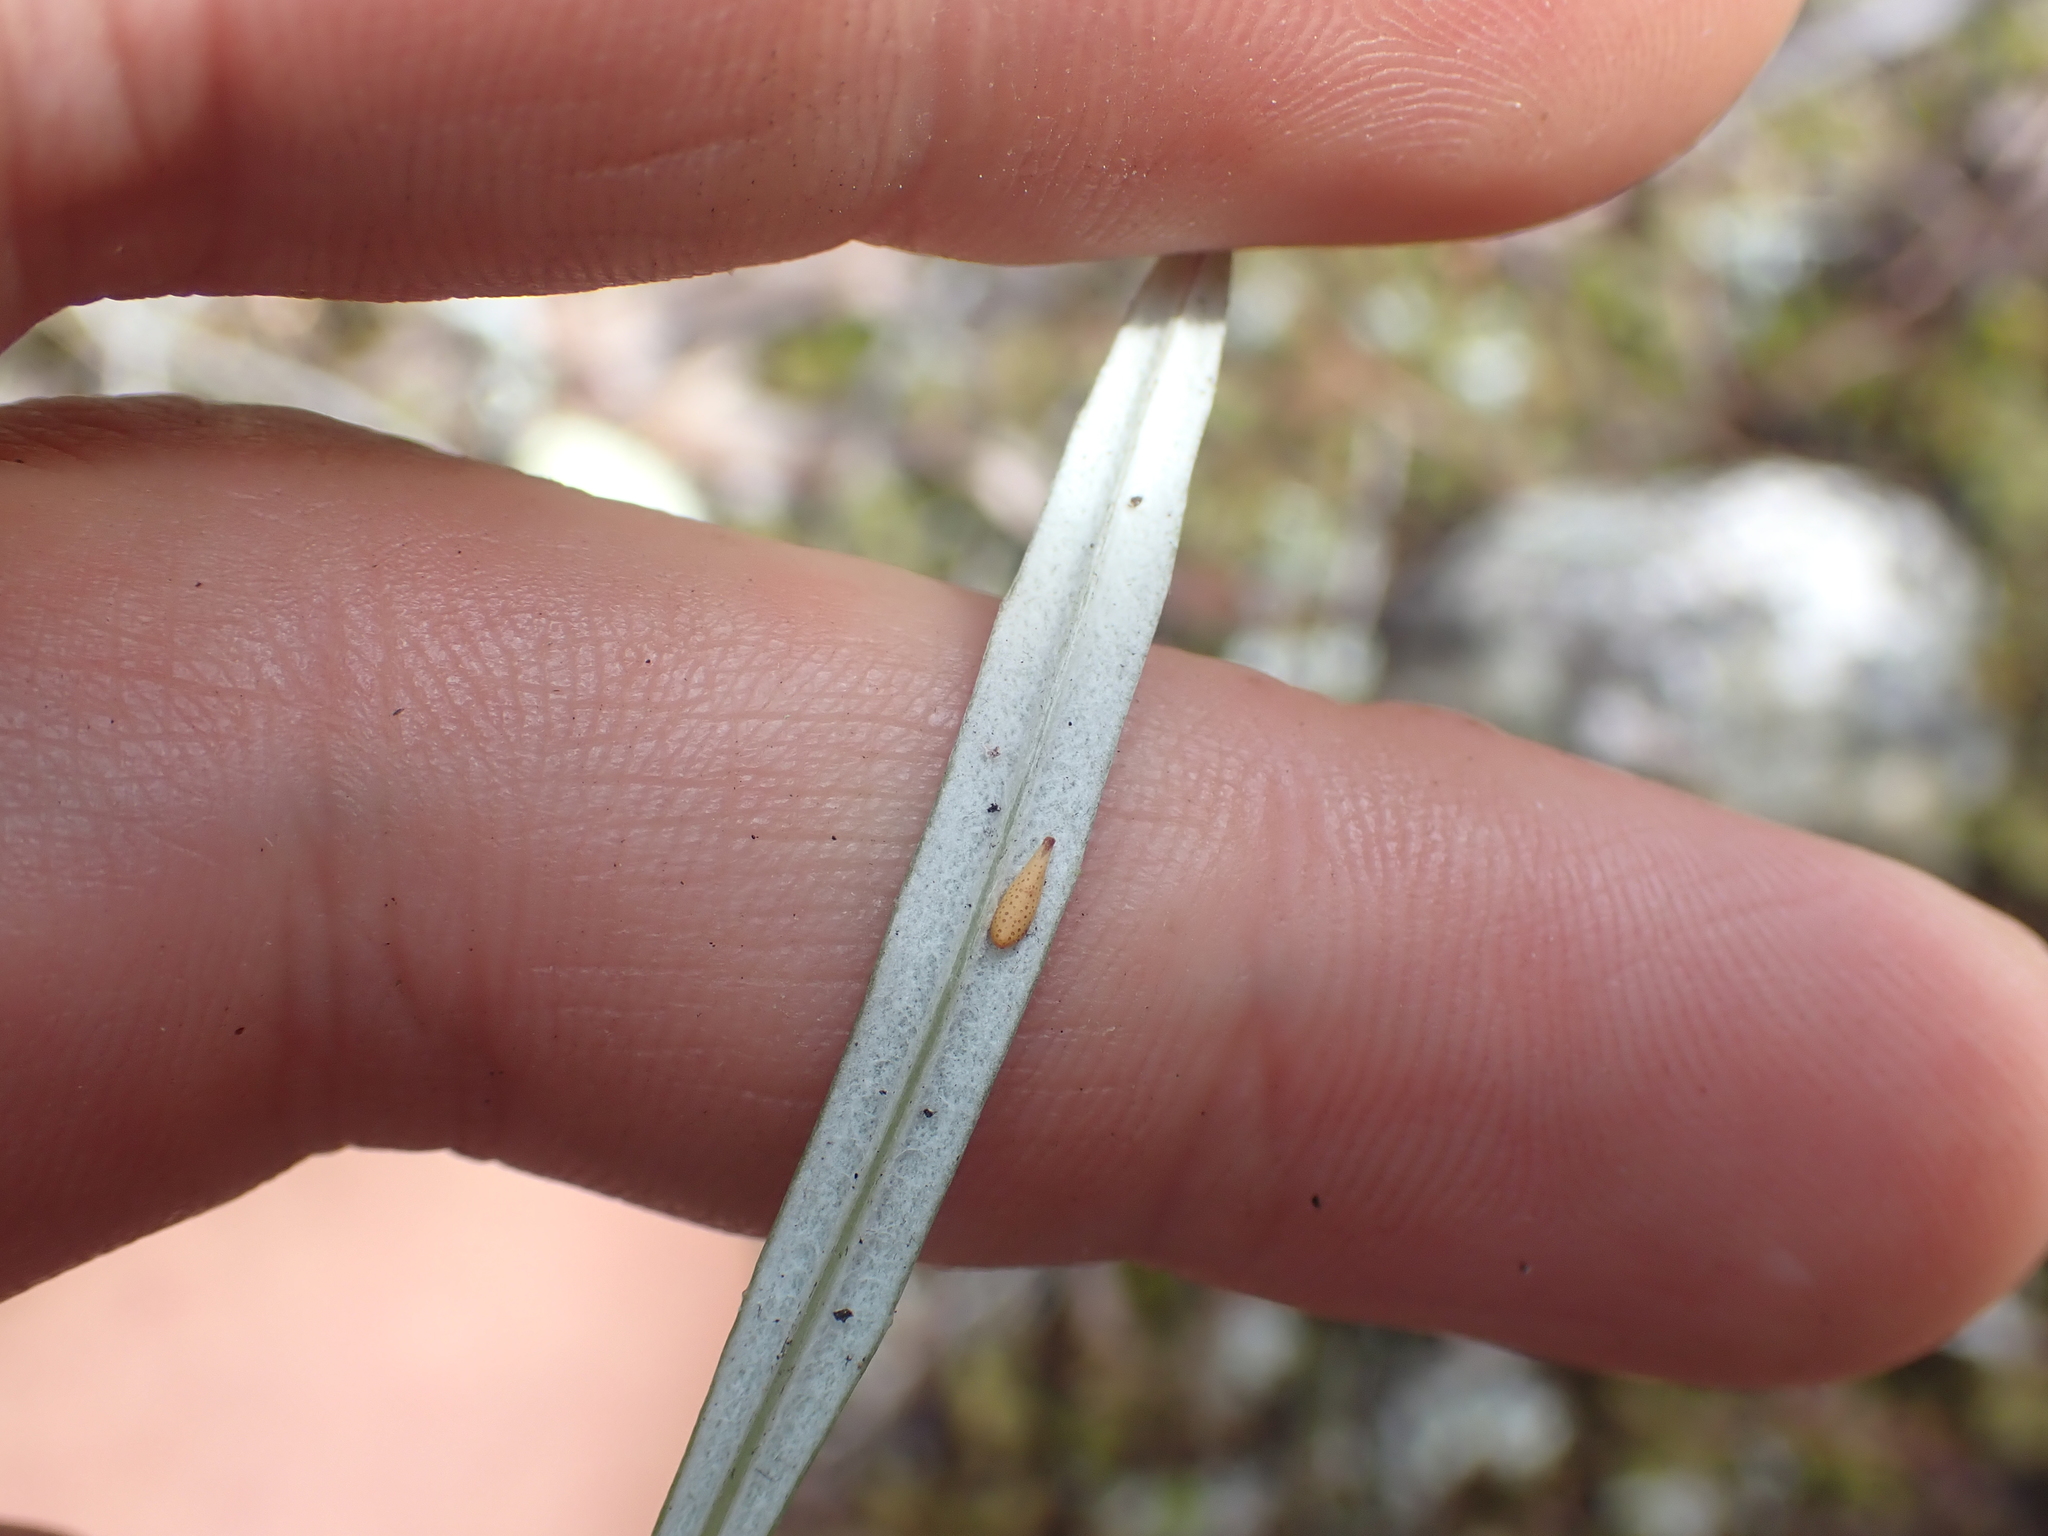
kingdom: Plantae
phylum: Tracheophyta
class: Magnoliopsida
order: Asterales
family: Asteraceae
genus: Celmisia
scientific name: Celmisia gracilenta
